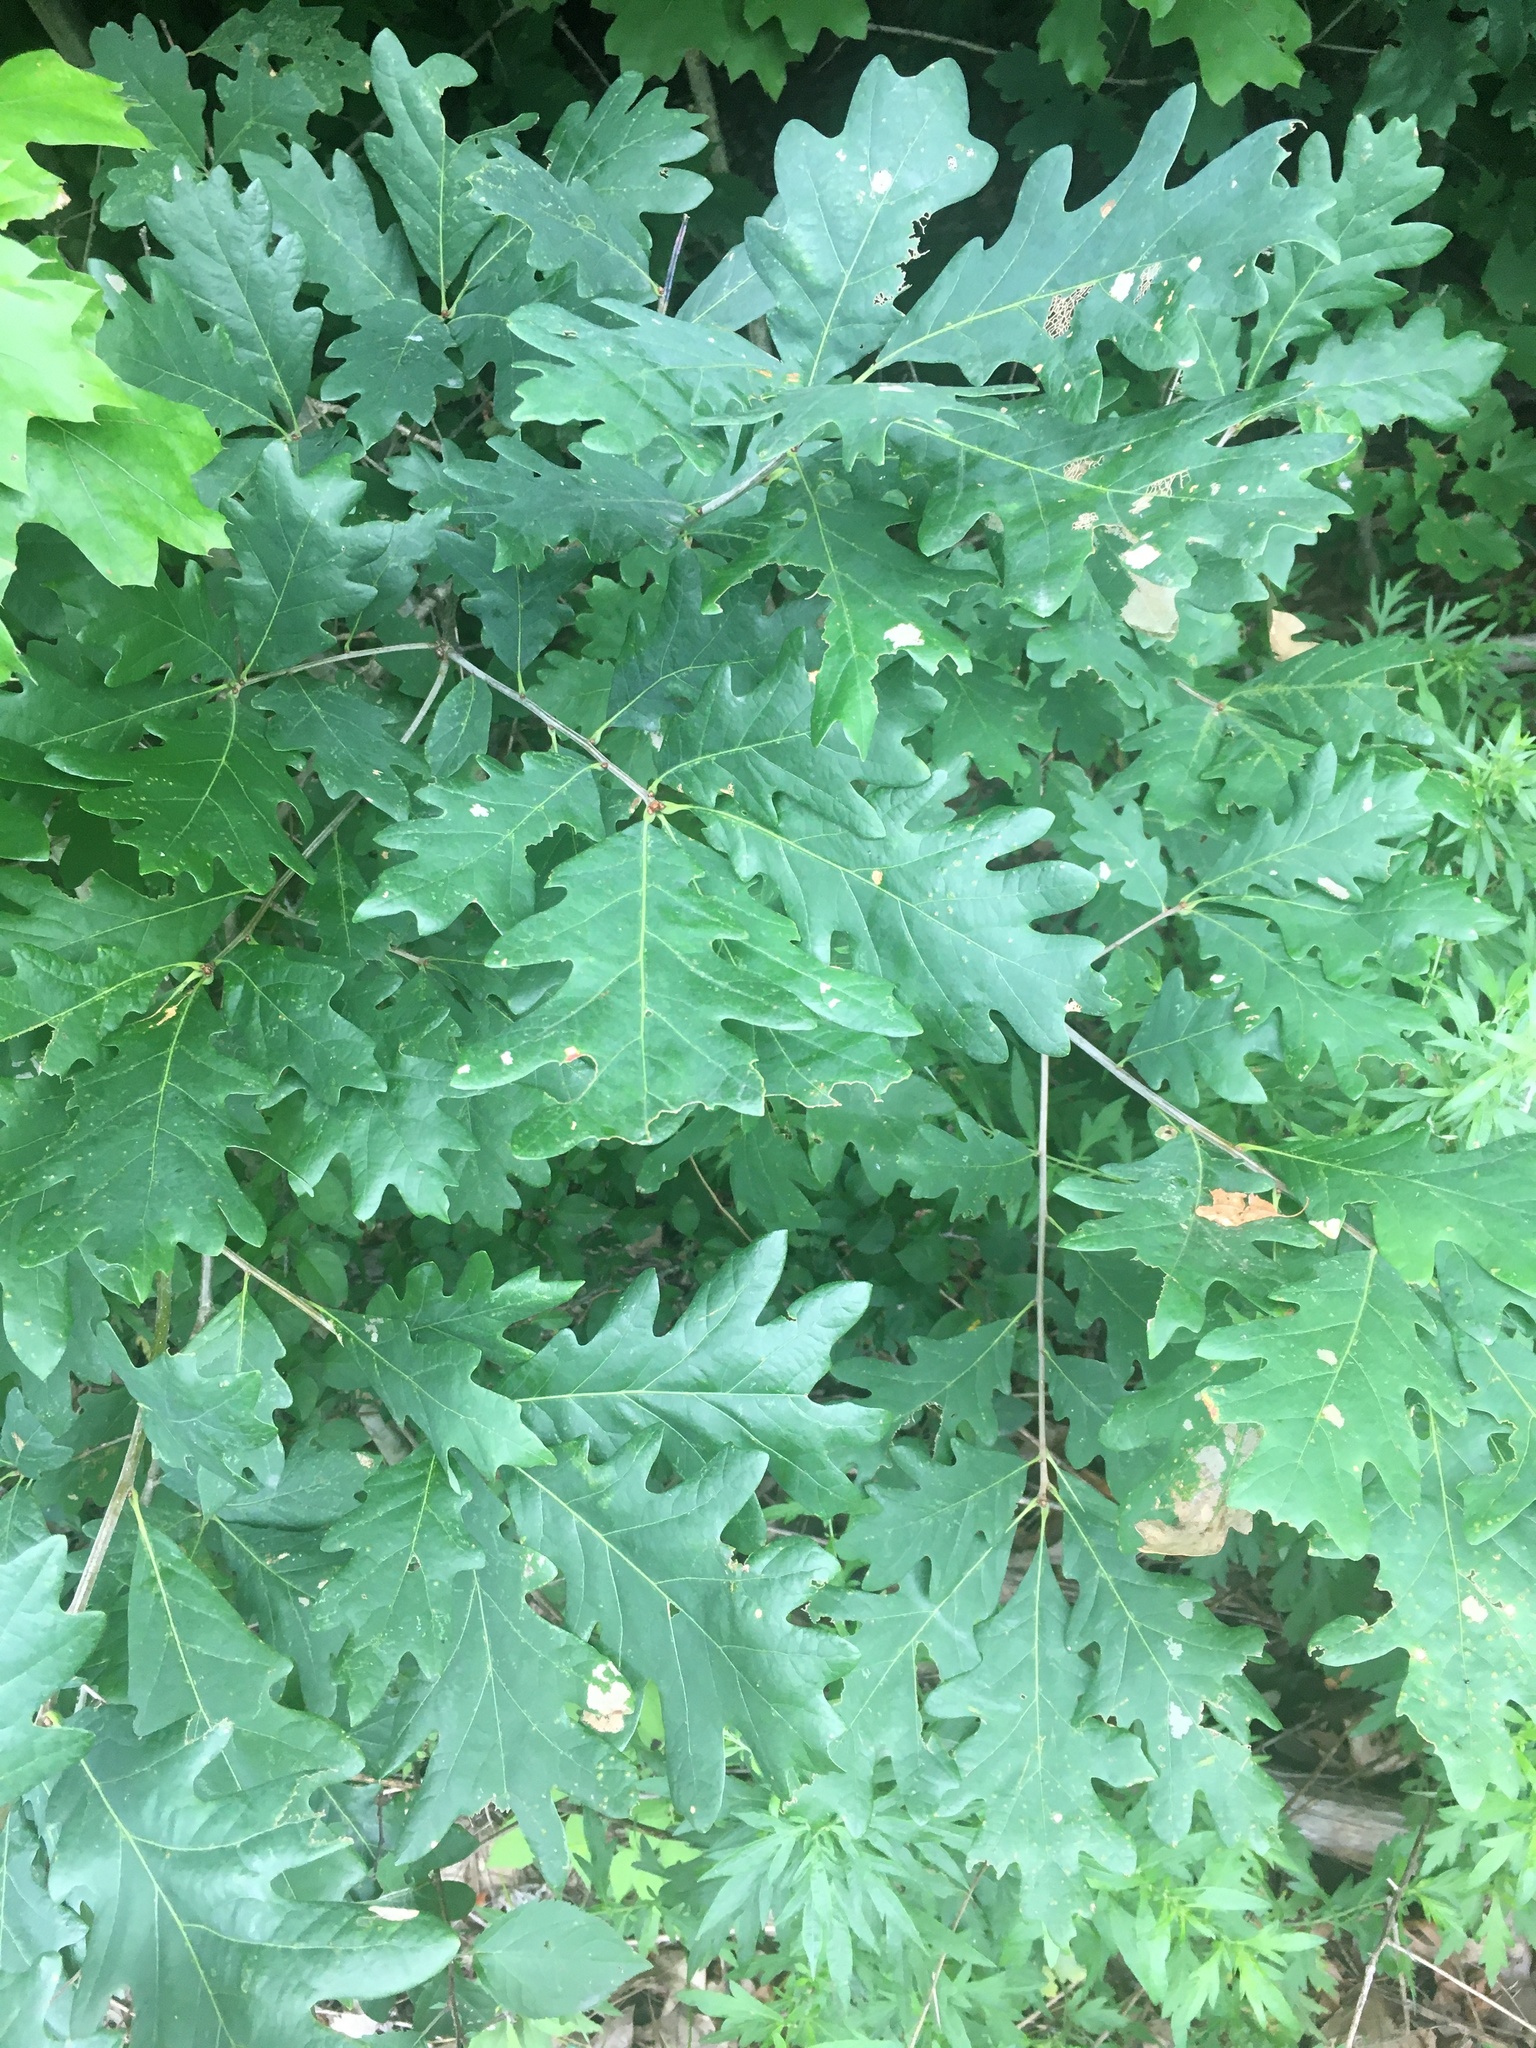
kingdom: Plantae
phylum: Tracheophyta
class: Magnoliopsida
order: Fagales
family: Fagaceae
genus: Quercus
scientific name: Quercus alba
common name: White oak
